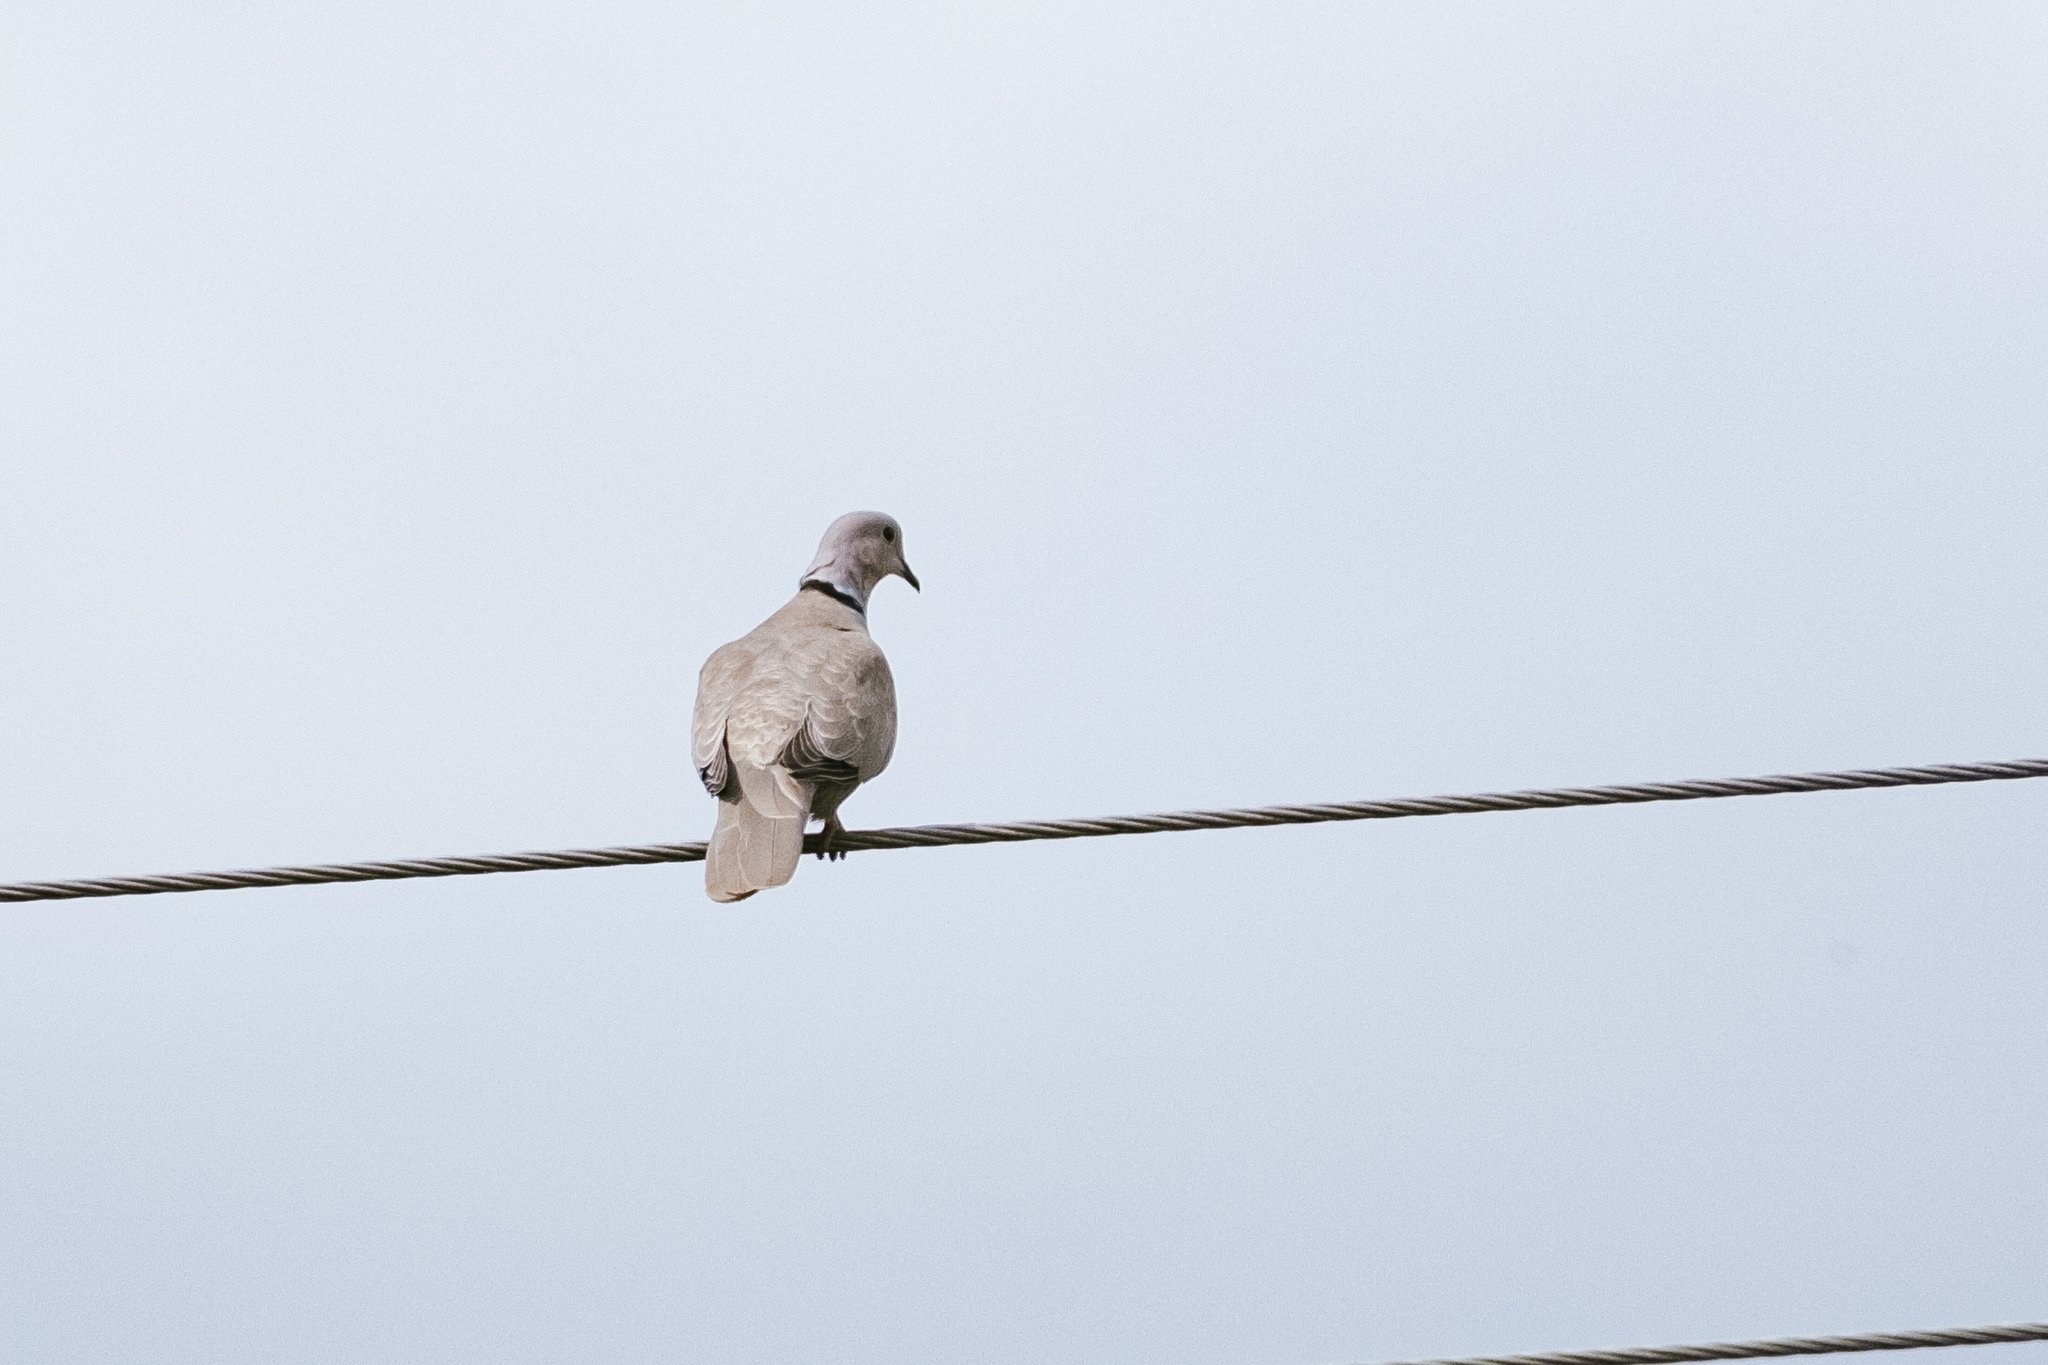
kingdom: Animalia
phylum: Chordata
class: Aves
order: Columbiformes
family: Columbidae
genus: Streptopelia
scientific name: Streptopelia decaocto
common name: Eurasian collared dove
